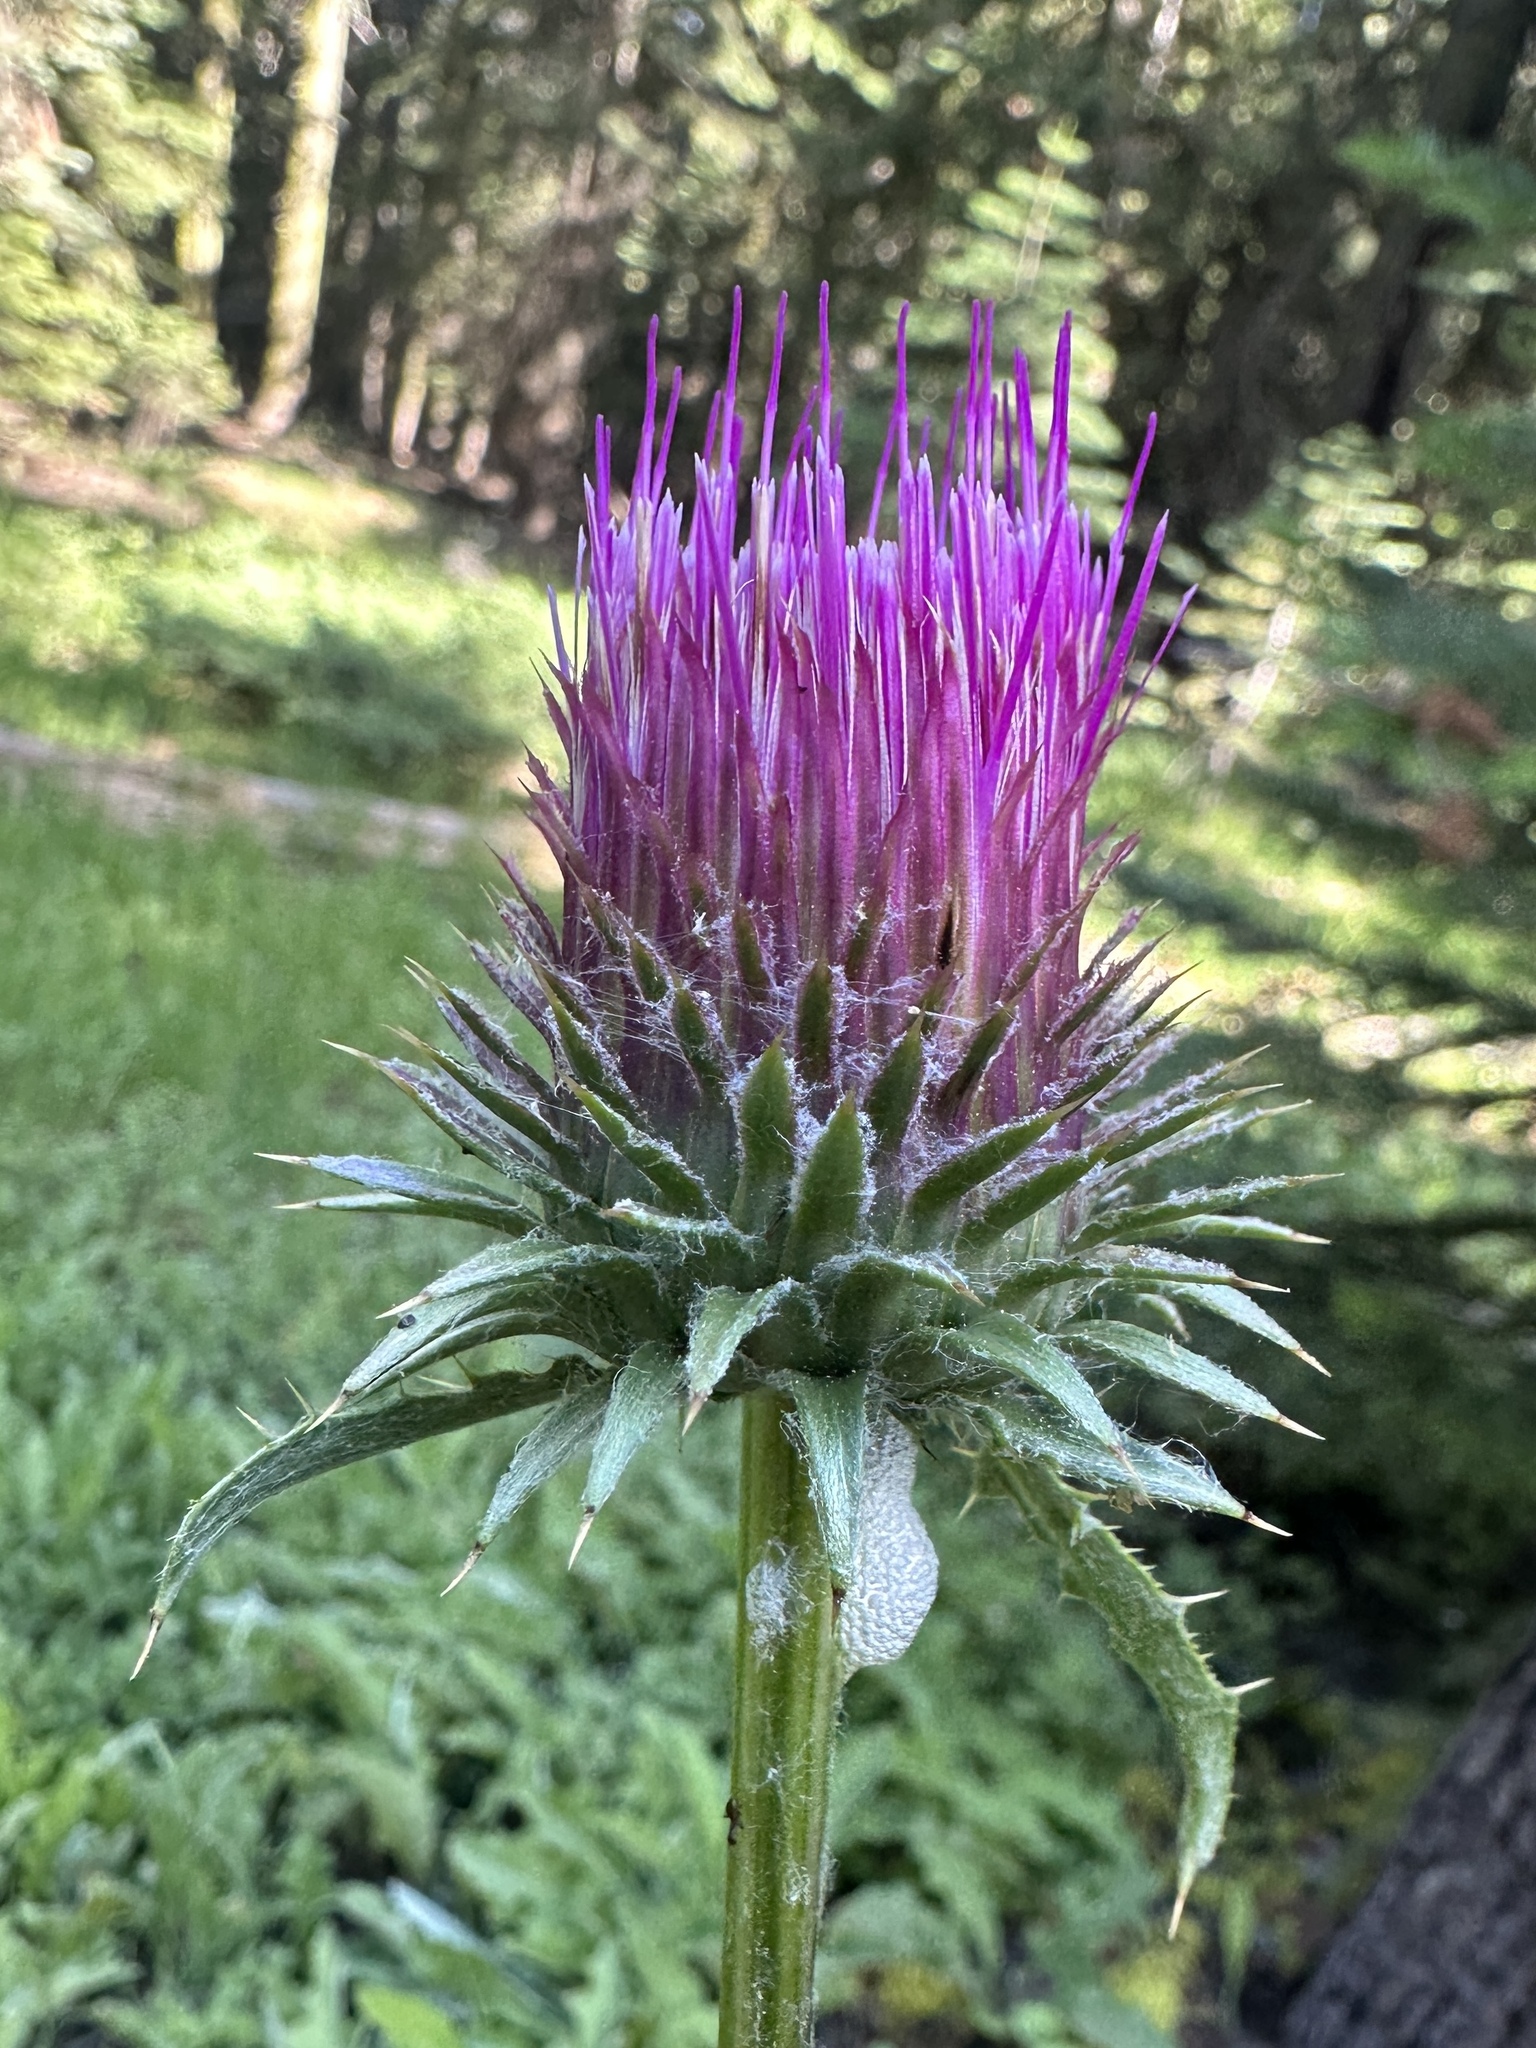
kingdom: Plantae
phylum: Tracheophyta
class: Magnoliopsida
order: Asterales
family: Asteraceae
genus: Cirsium
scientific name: Cirsium andersonii
